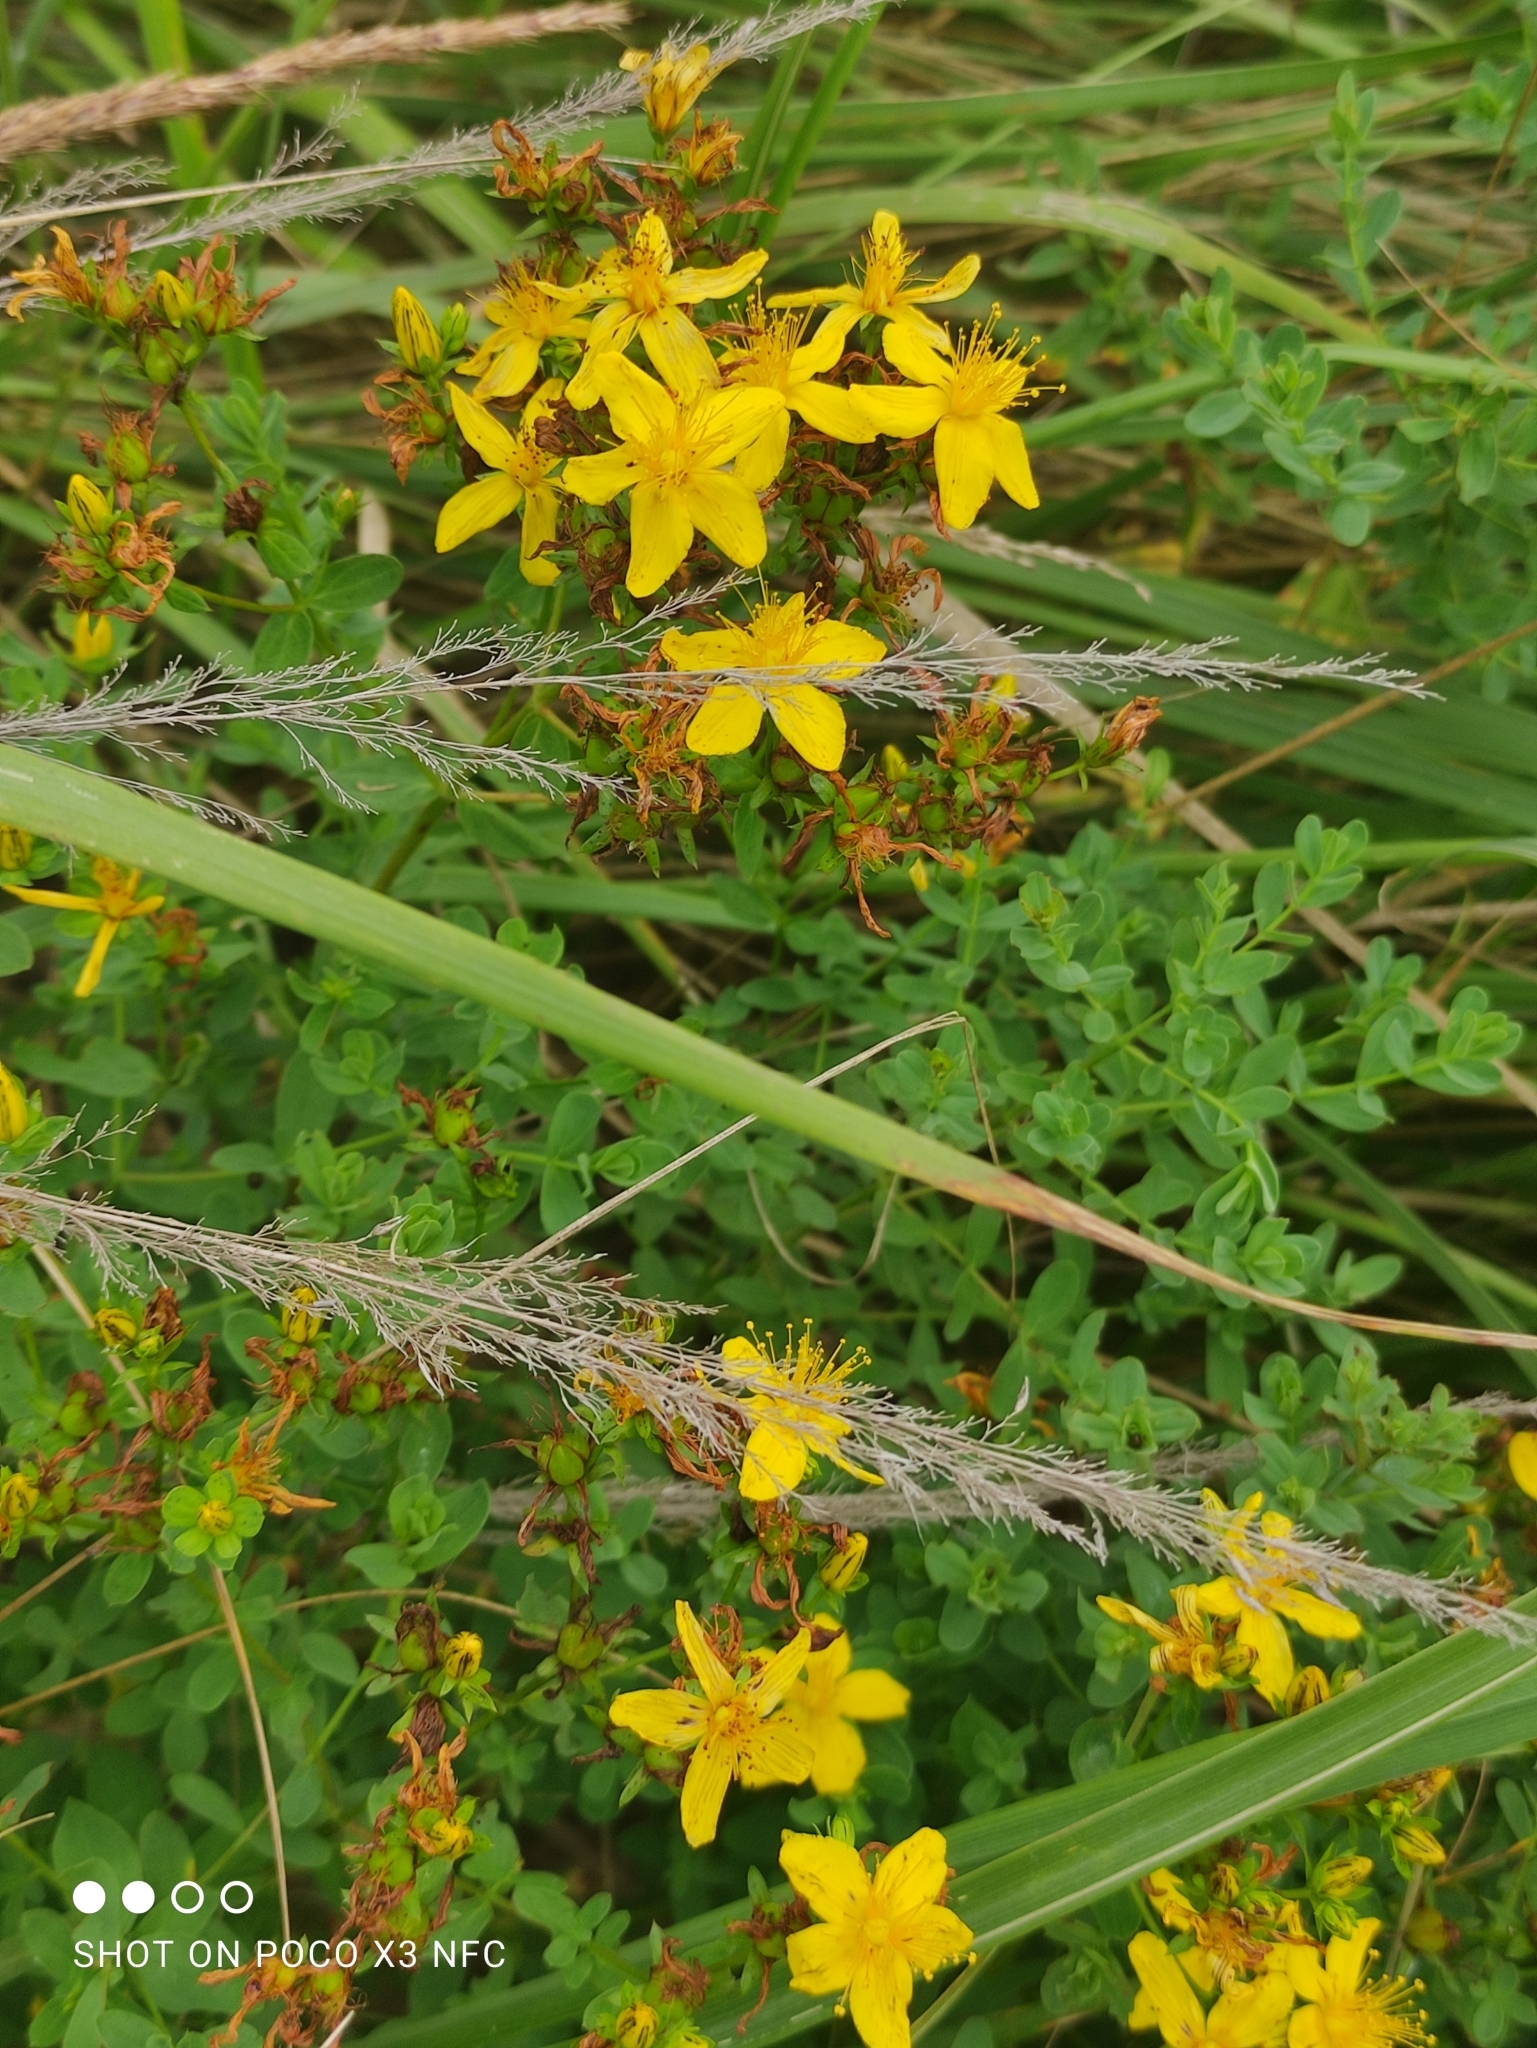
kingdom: Plantae
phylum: Tracheophyta
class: Magnoliopsida
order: Malpighiales
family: Hypericaceae
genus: Hypericum
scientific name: Hypericum perforatum
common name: Common st. johnswort
